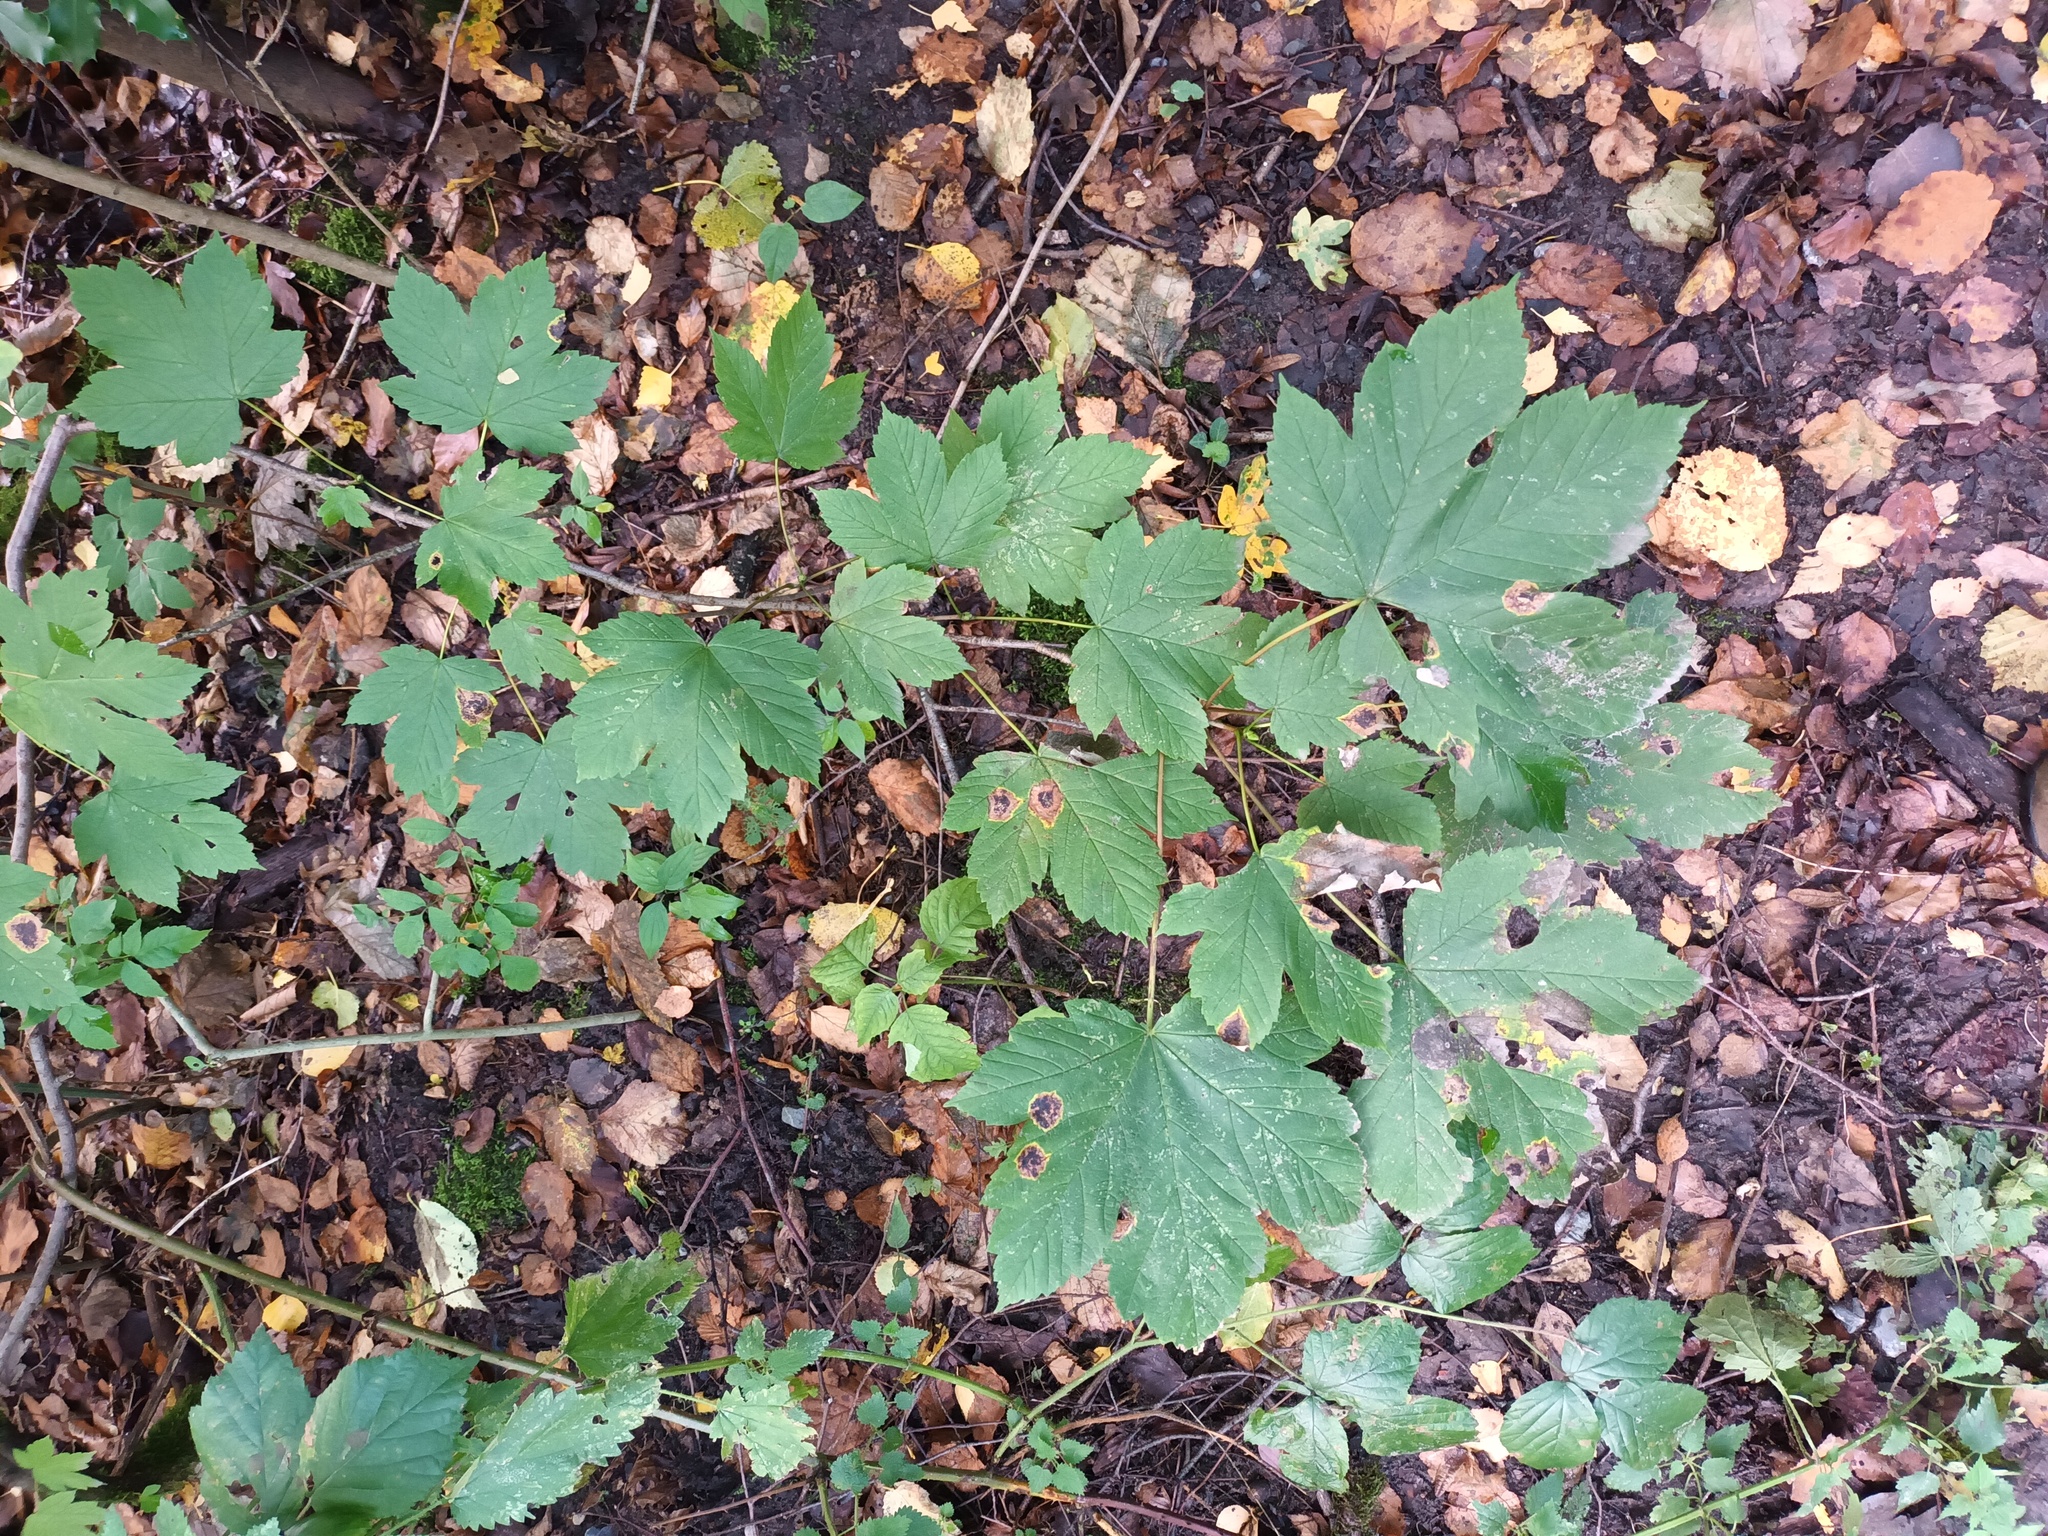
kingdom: Plantae
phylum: Tracheophyta
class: Magnoliopsida
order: Sapindales
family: Sapindaceae
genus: Acer
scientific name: Acer pseudoplatanus
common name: Sycamore
